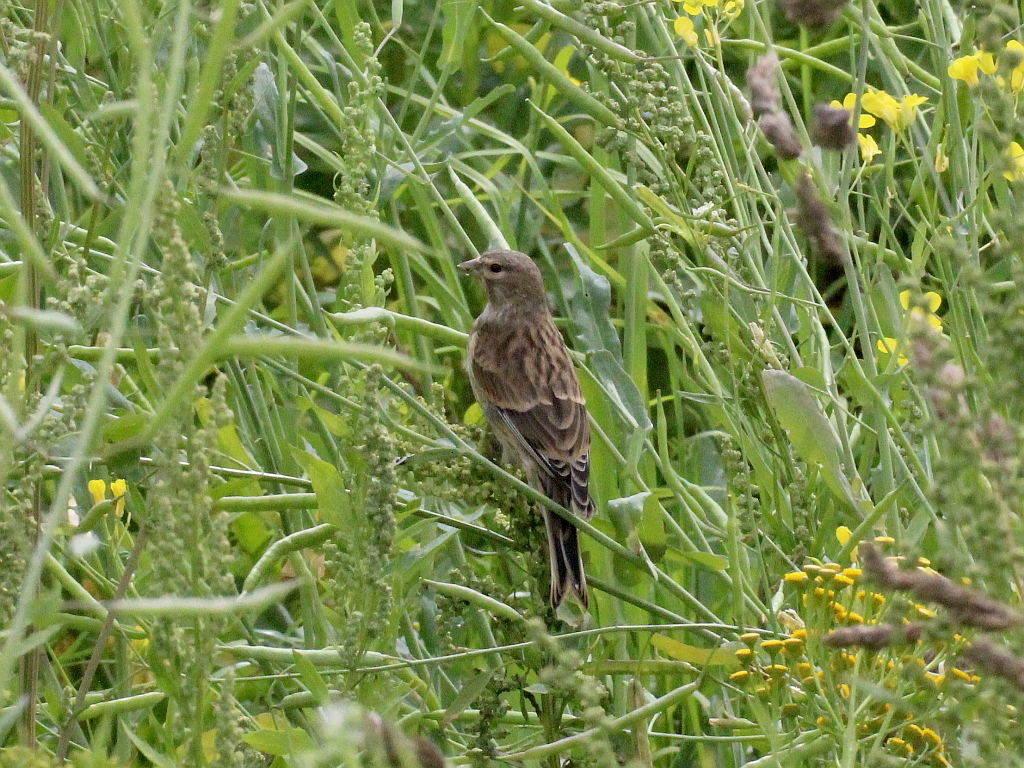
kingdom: Animalia
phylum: Chordata
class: Aves
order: Passeriformes
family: Fringillidae
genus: Linaria
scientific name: Linaria cannabina
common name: Common linnet
